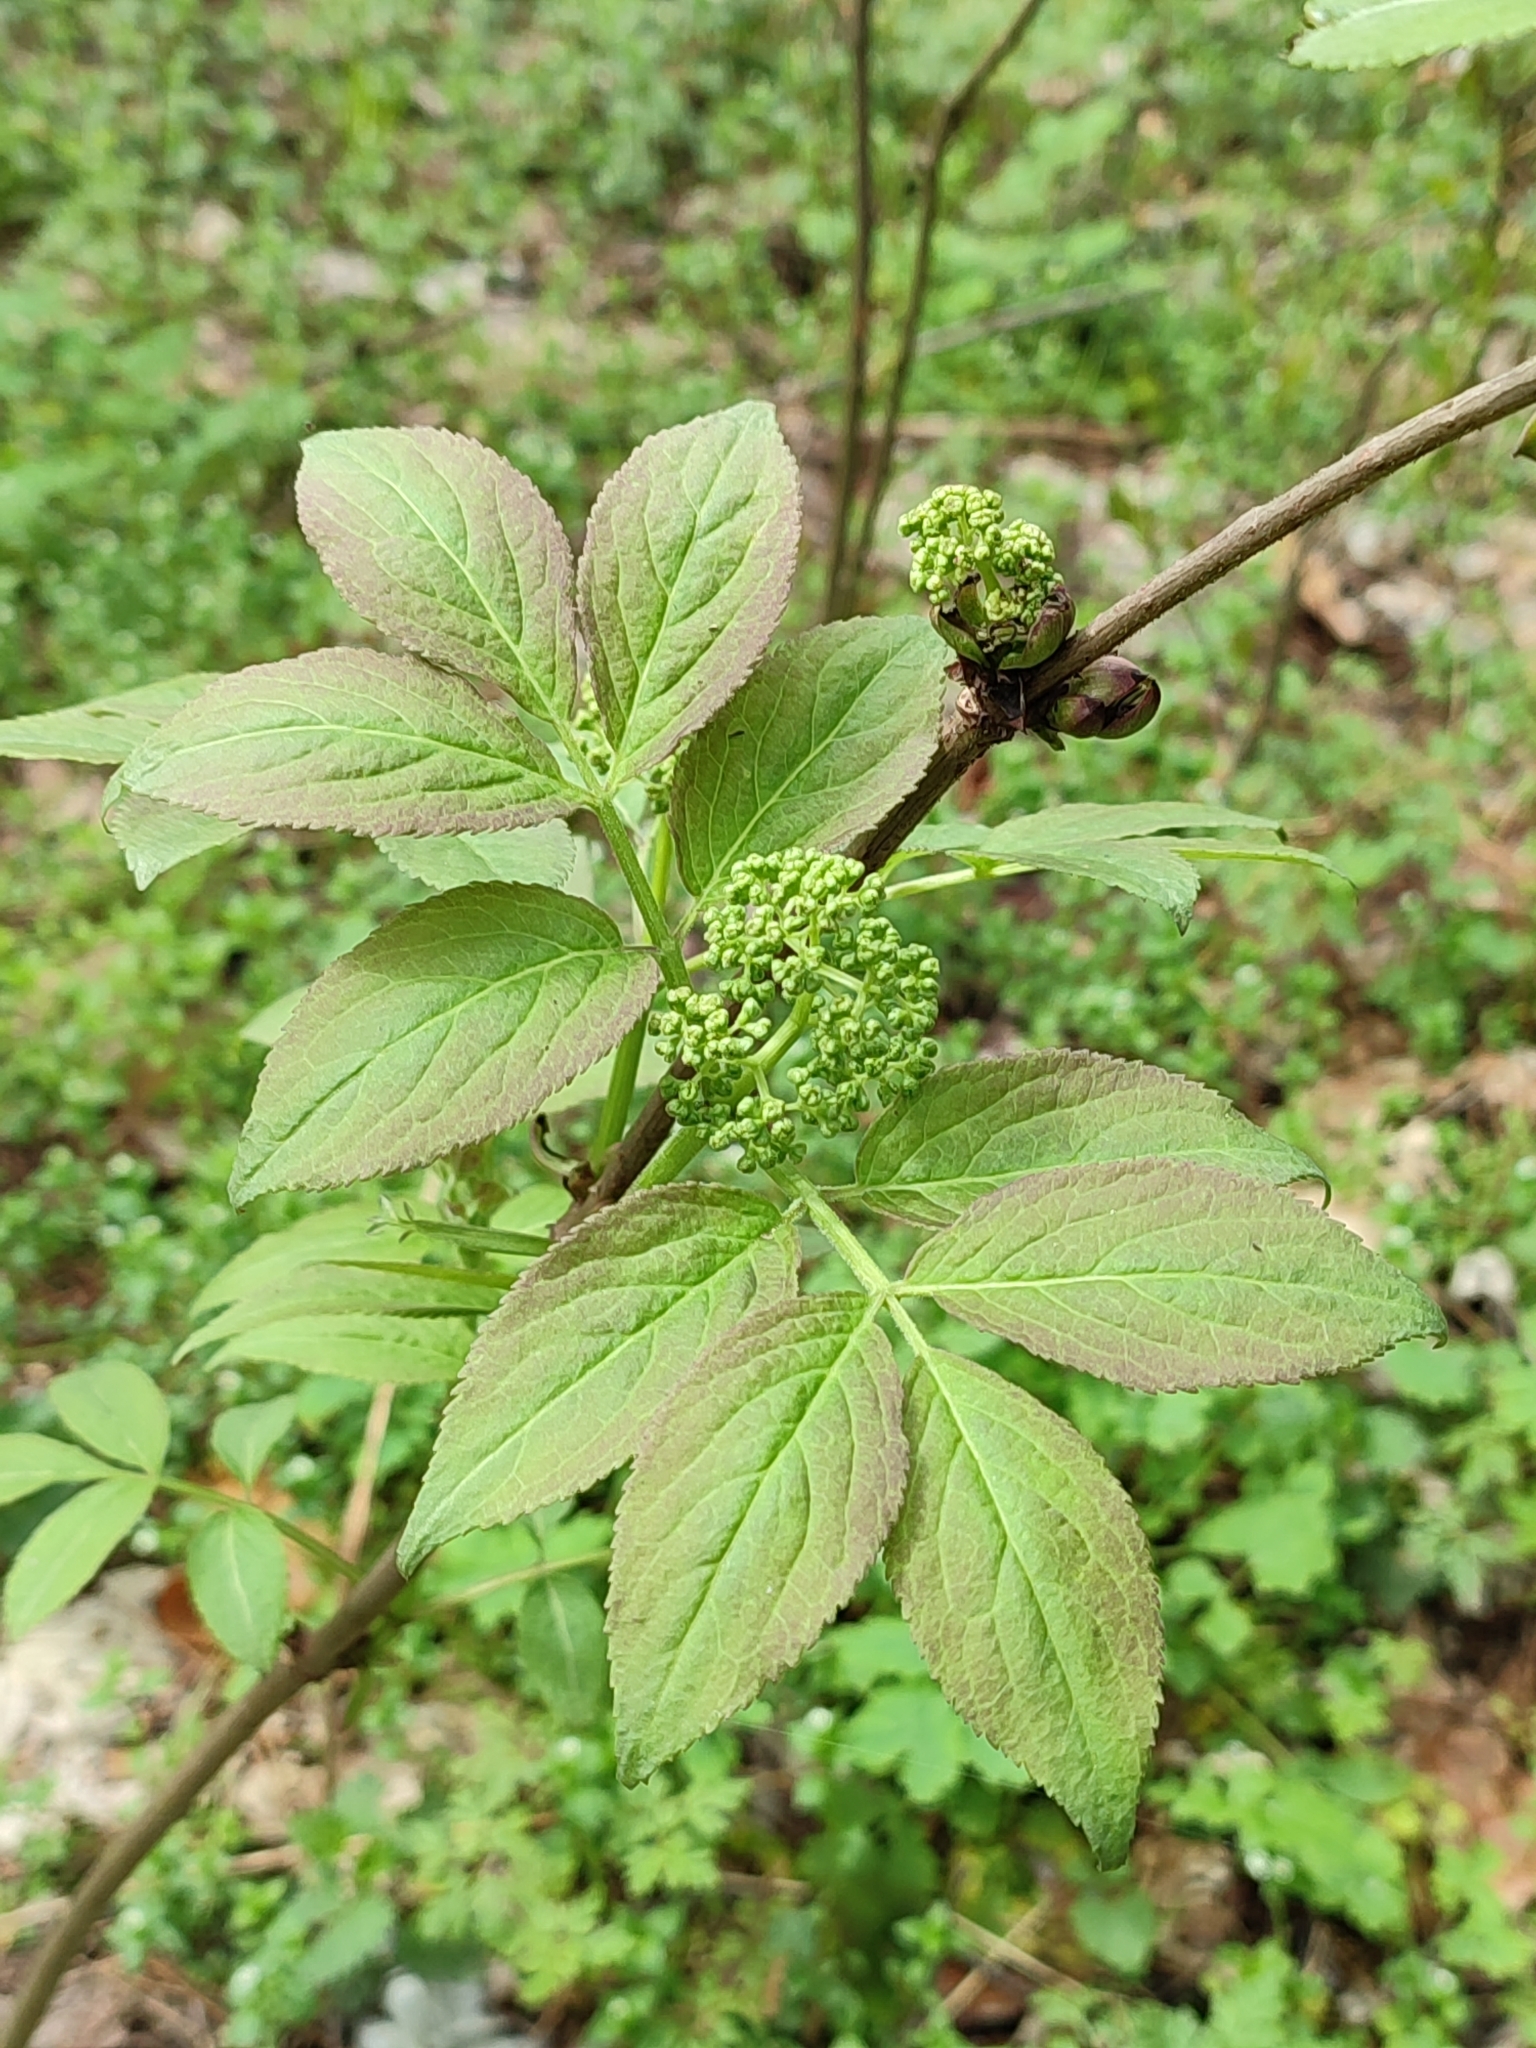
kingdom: Plantae
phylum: Tracheophyta
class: Magnoliopsida
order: Dipsacales
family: Viburnaceae
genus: Sambucus
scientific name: Sambucus racemosa
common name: Red-berried elder
